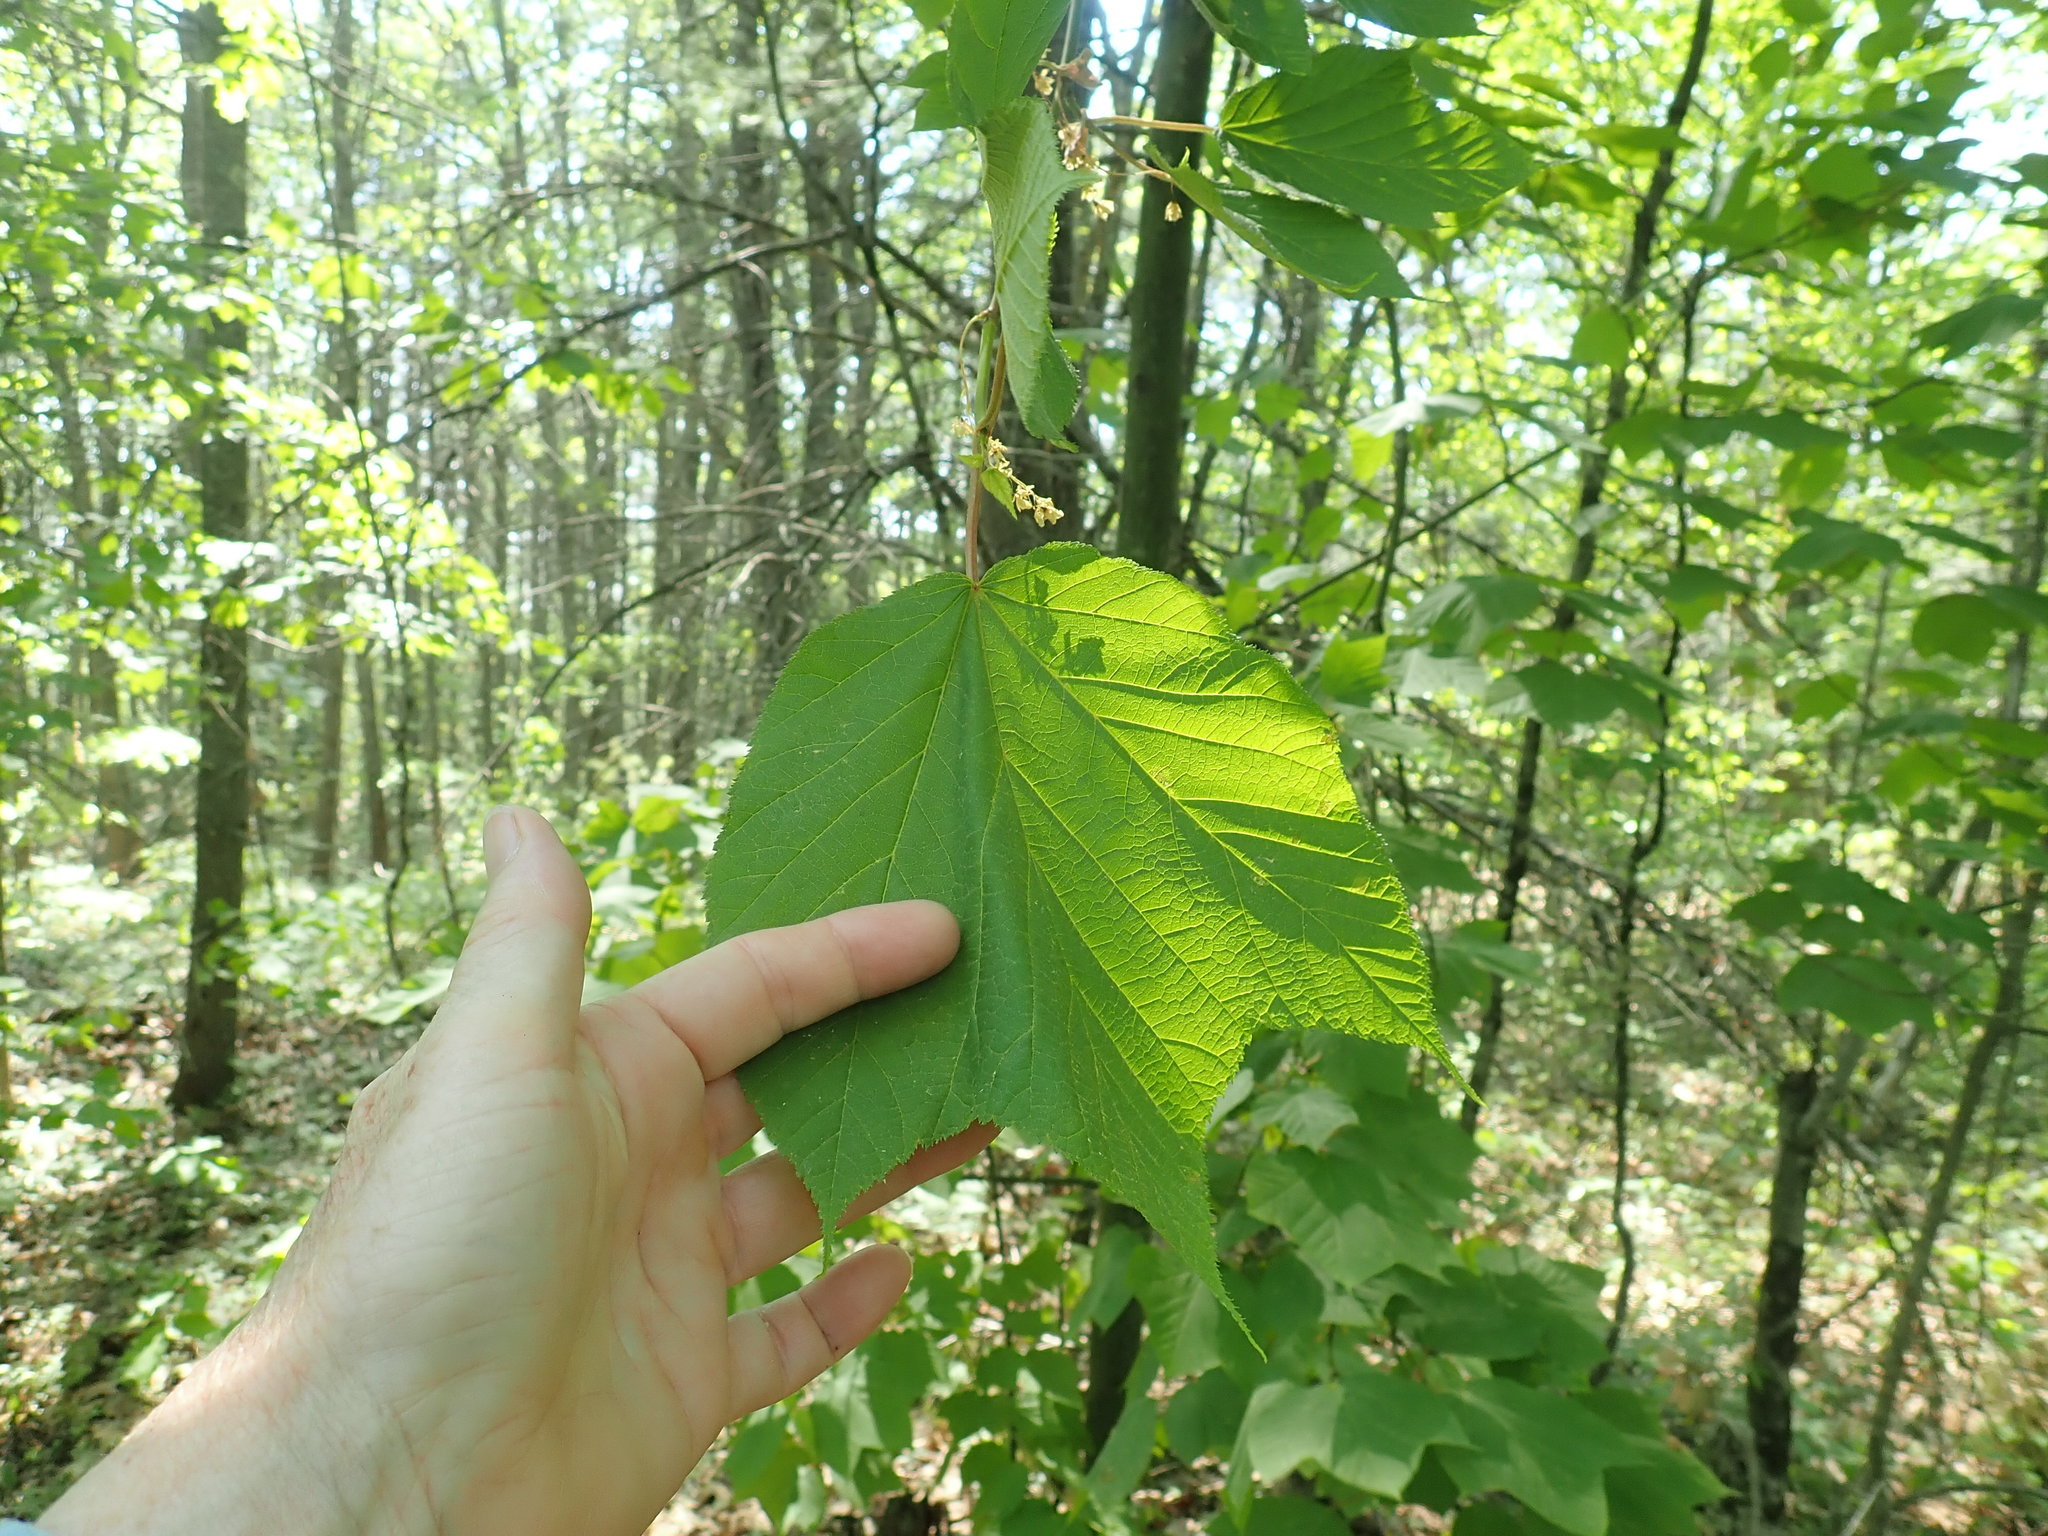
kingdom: Plantae
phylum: Tracheophyta
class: Magnoliopsida
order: Sapindales
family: Sapindaceae
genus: Acer
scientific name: Acer pensylvanicum
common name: Moosewood
